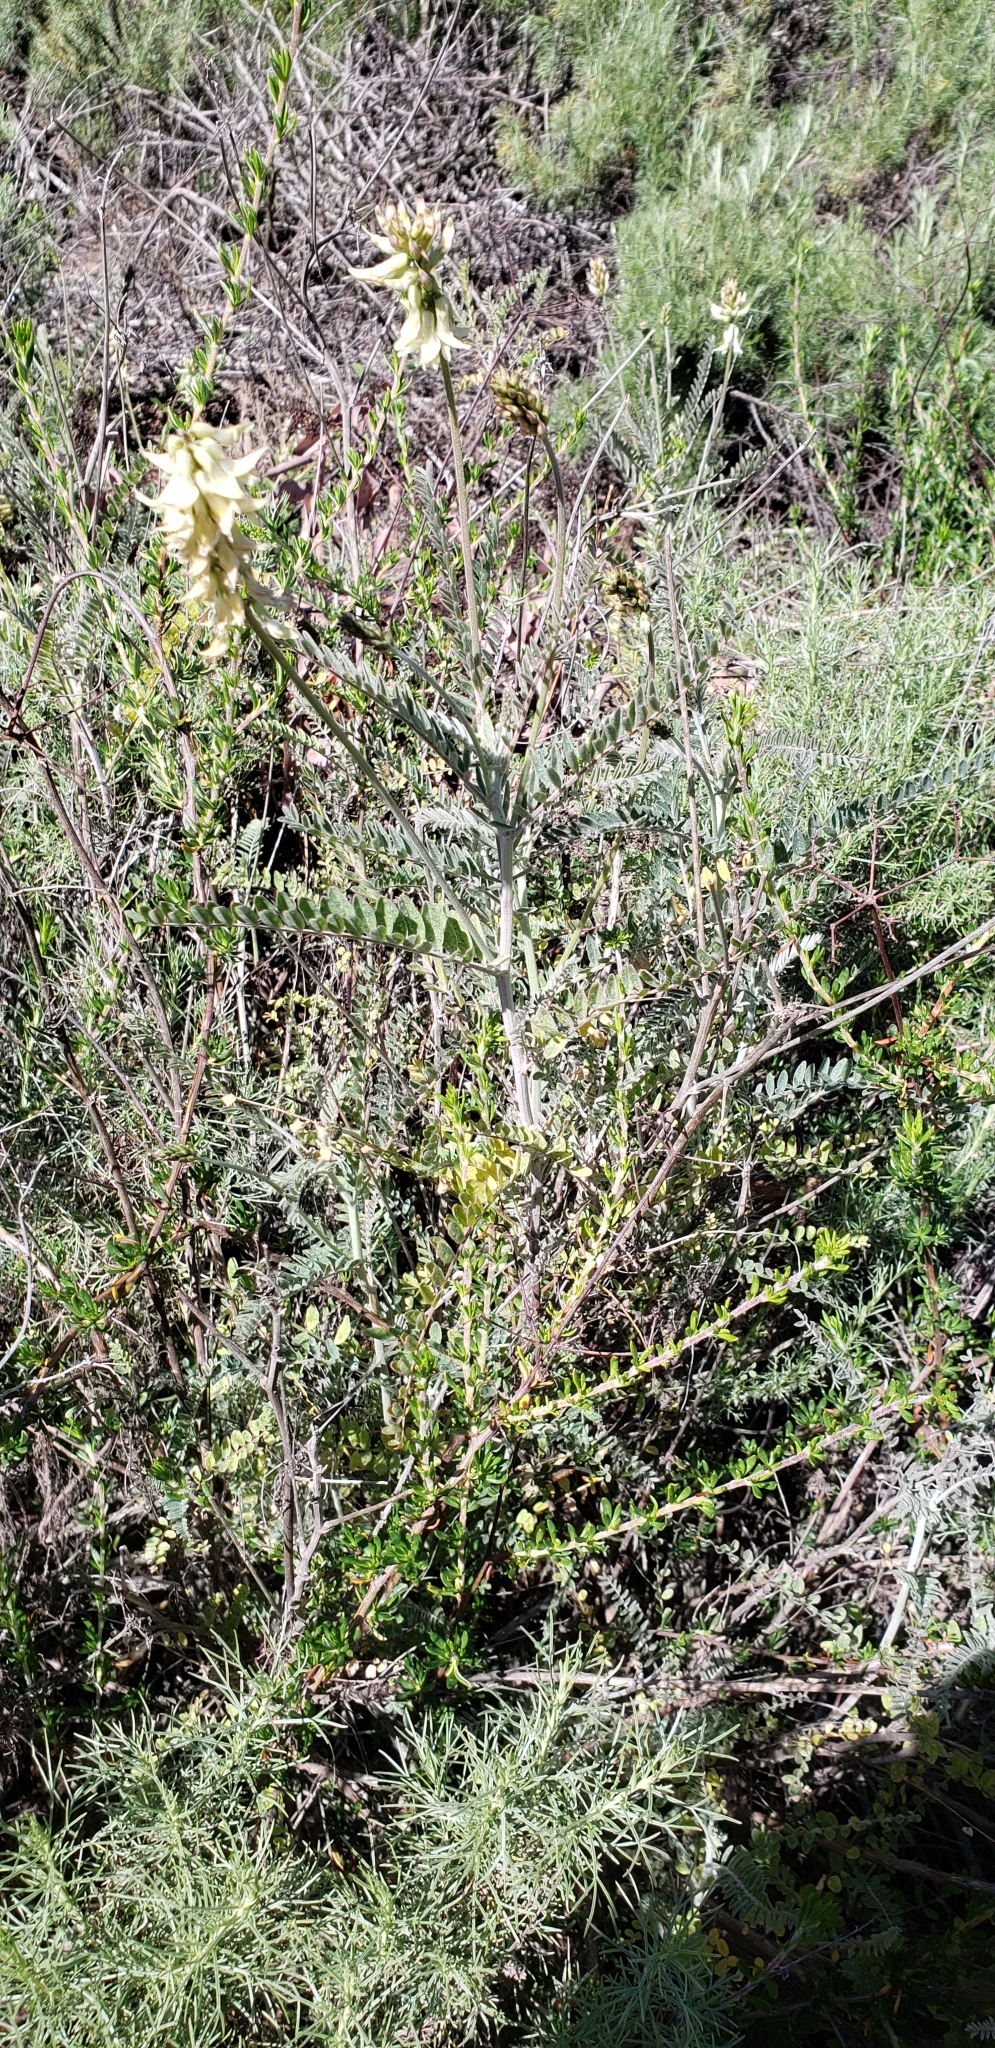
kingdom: Plantae
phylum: Tracheophyta
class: Magnoliopsida
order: Fabales
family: Fabaceae
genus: Astragalus
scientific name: Astragalus trichopodus
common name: Santa barbara milk-vetch
